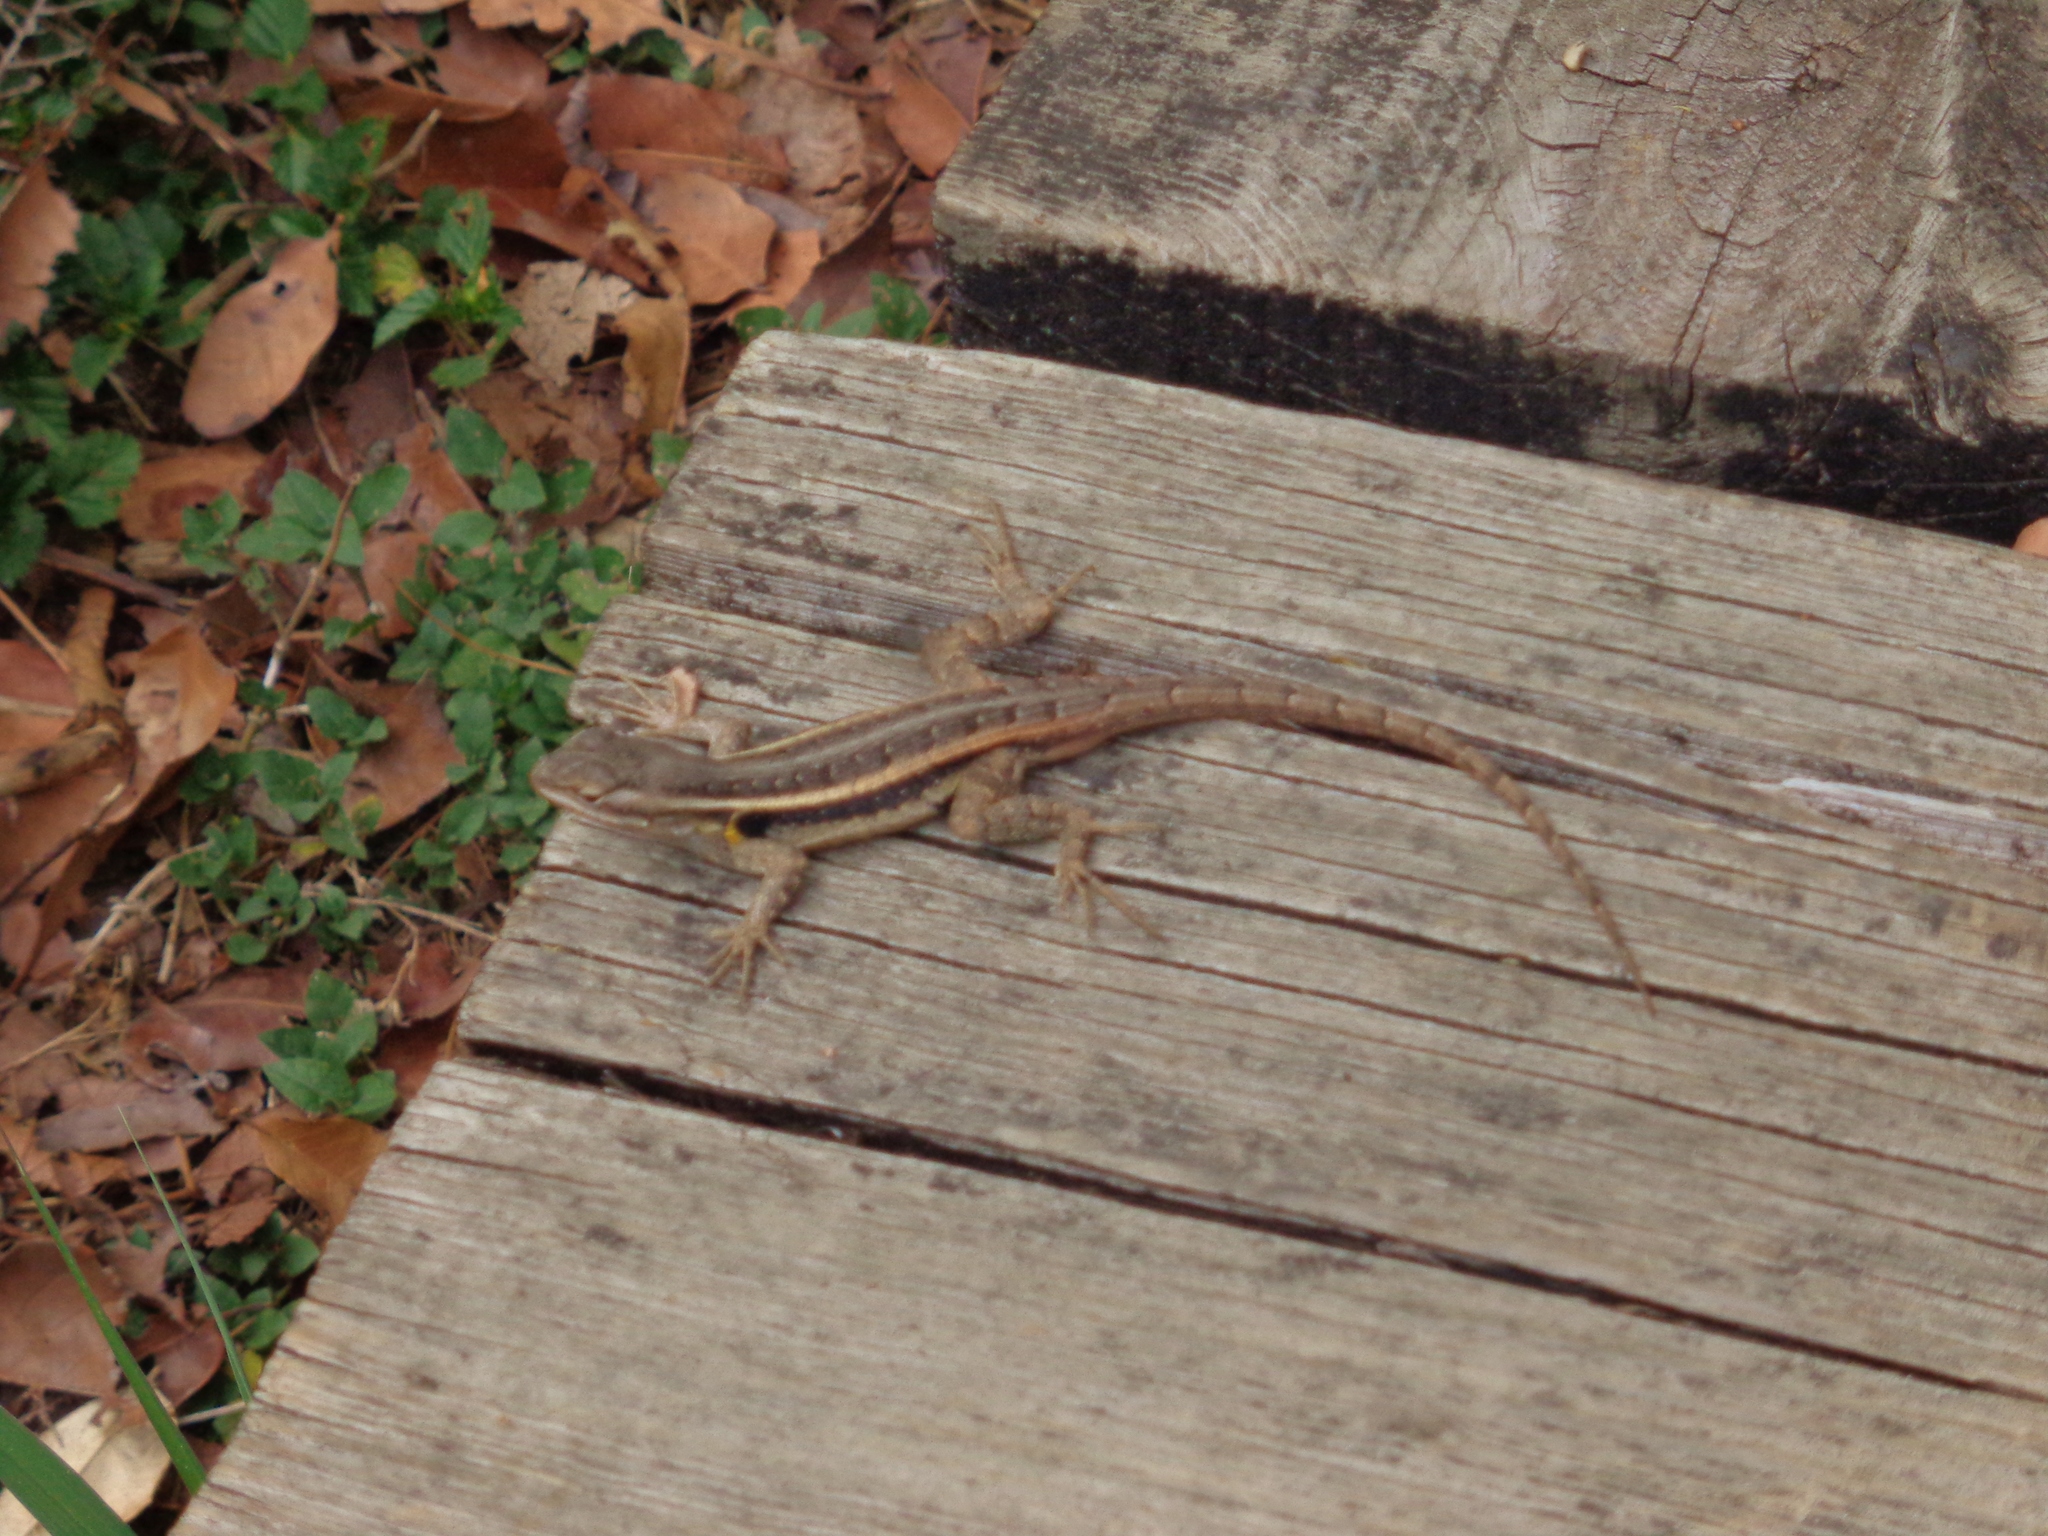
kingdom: Animalia
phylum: Chordata
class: Squamata
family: Phrynosomatidae
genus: Sceloporus
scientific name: Sceloporus variabilis
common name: Rosebelly lizard
